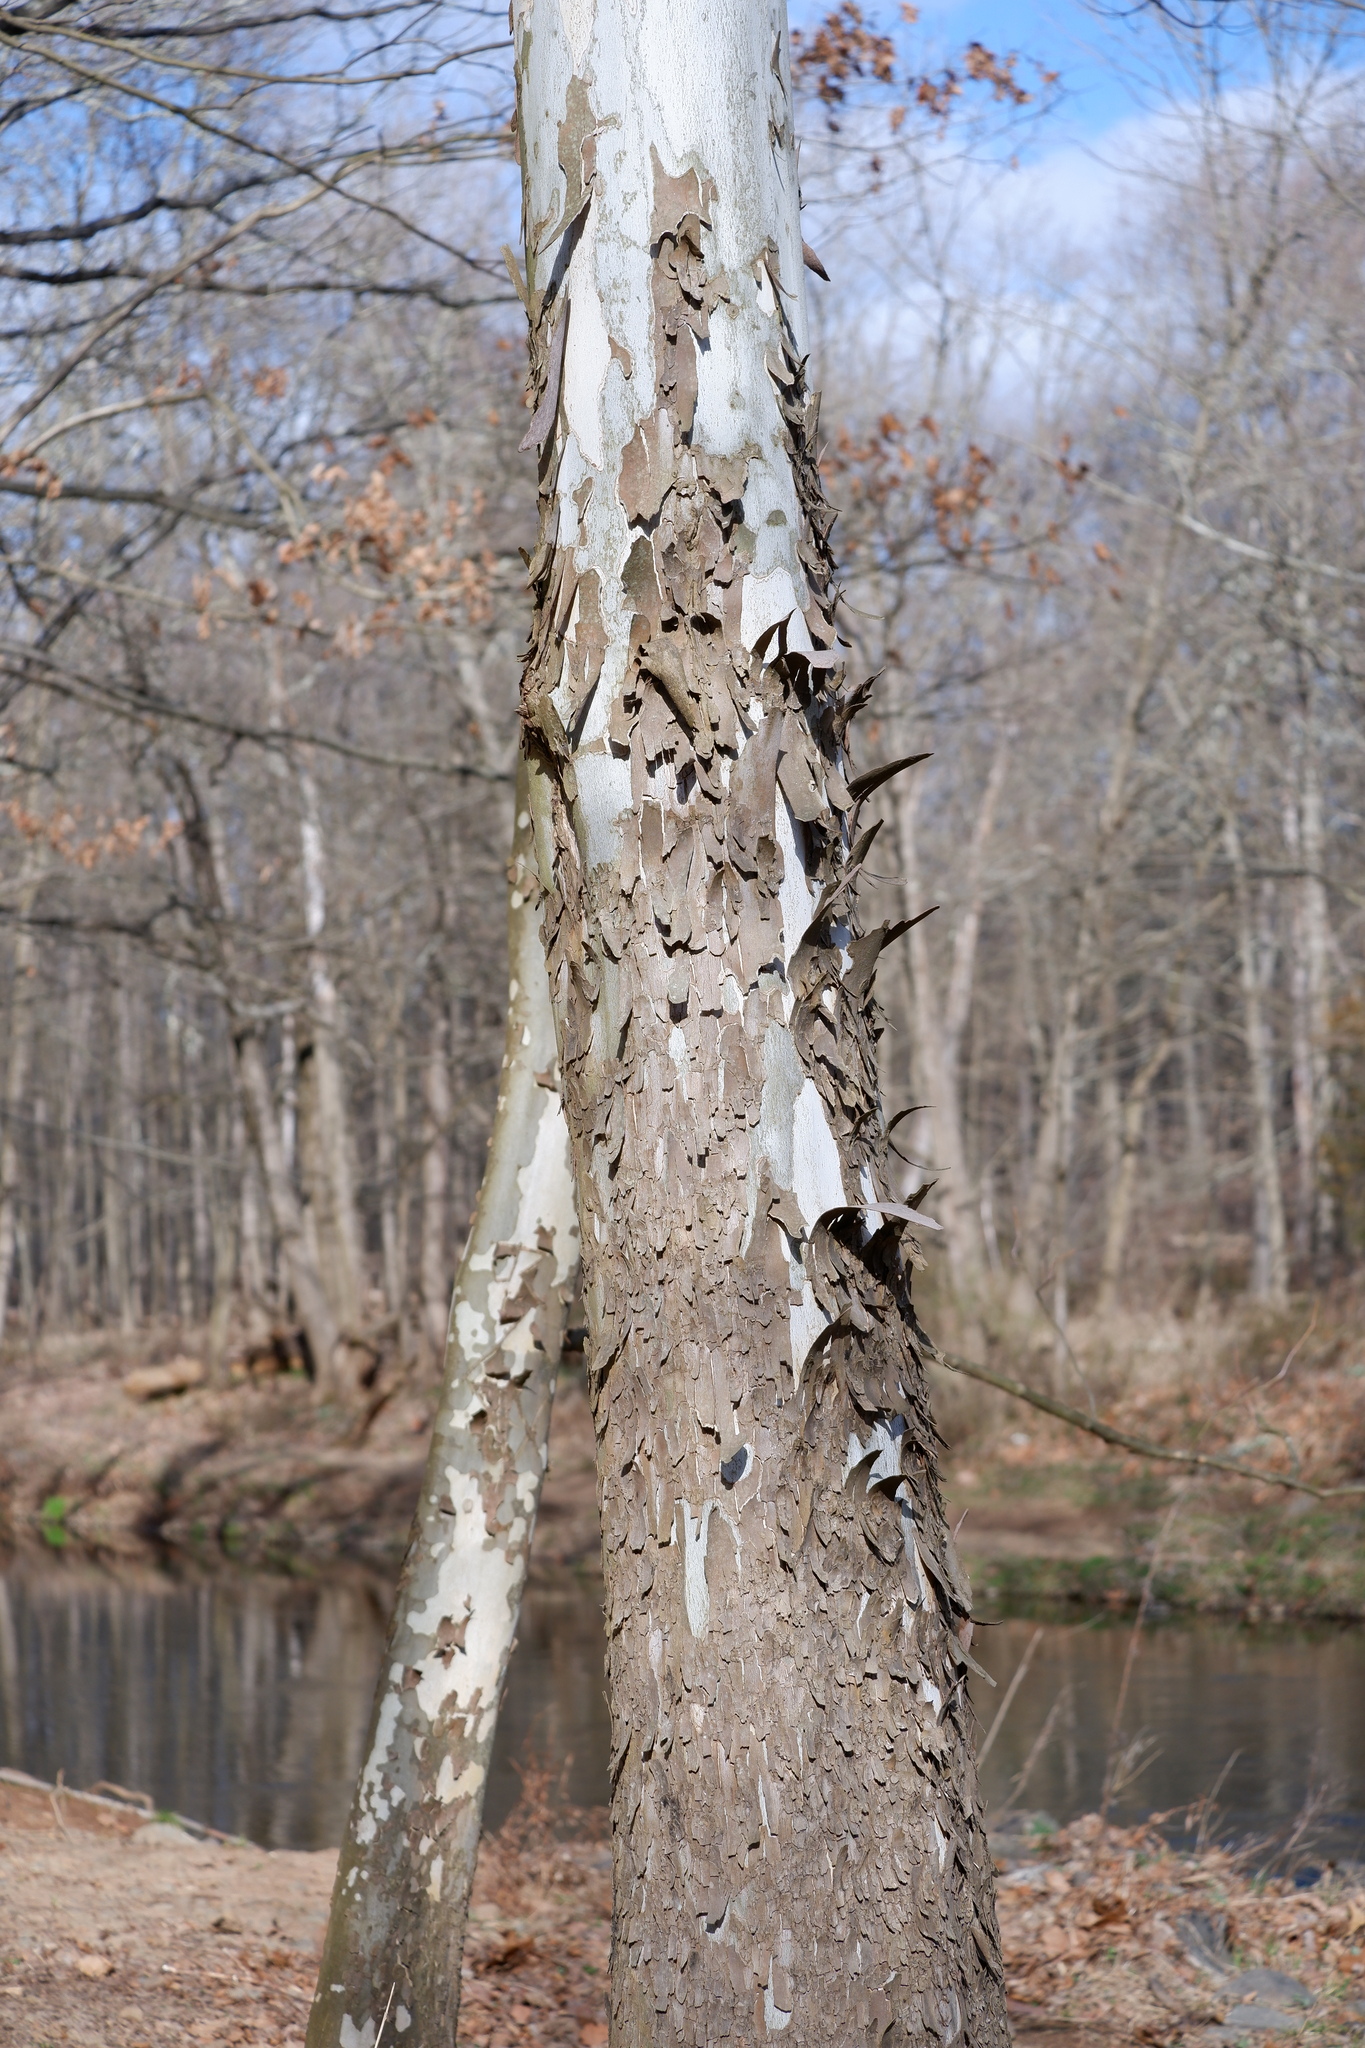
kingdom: Plantae
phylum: Tracheophyta
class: Magnoliopsida
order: Proteales
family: Platanaceae
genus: Platanus
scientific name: Platanus occidentalis
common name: American sycamore
